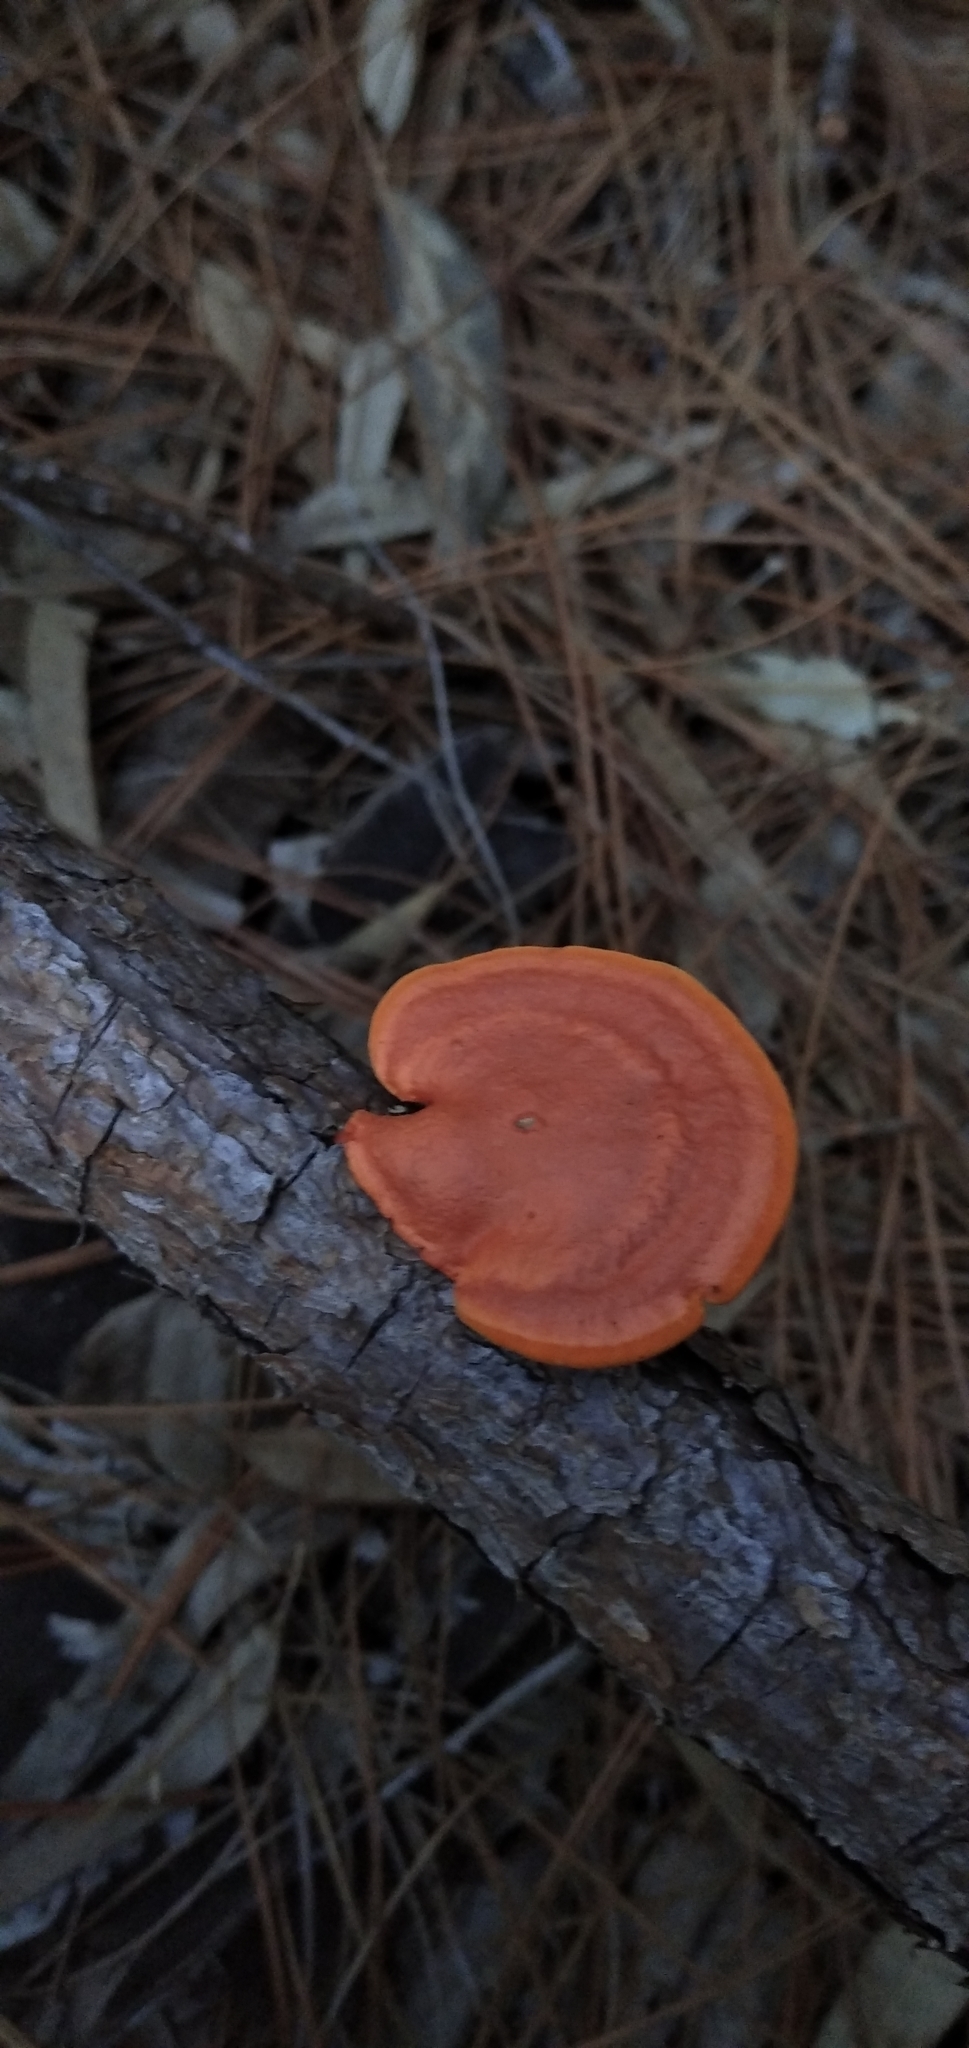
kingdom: Fungi
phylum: Basidiomycota
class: Agaricomycetes
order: Polyporales
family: Polyporaceae
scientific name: Polyporaceae
